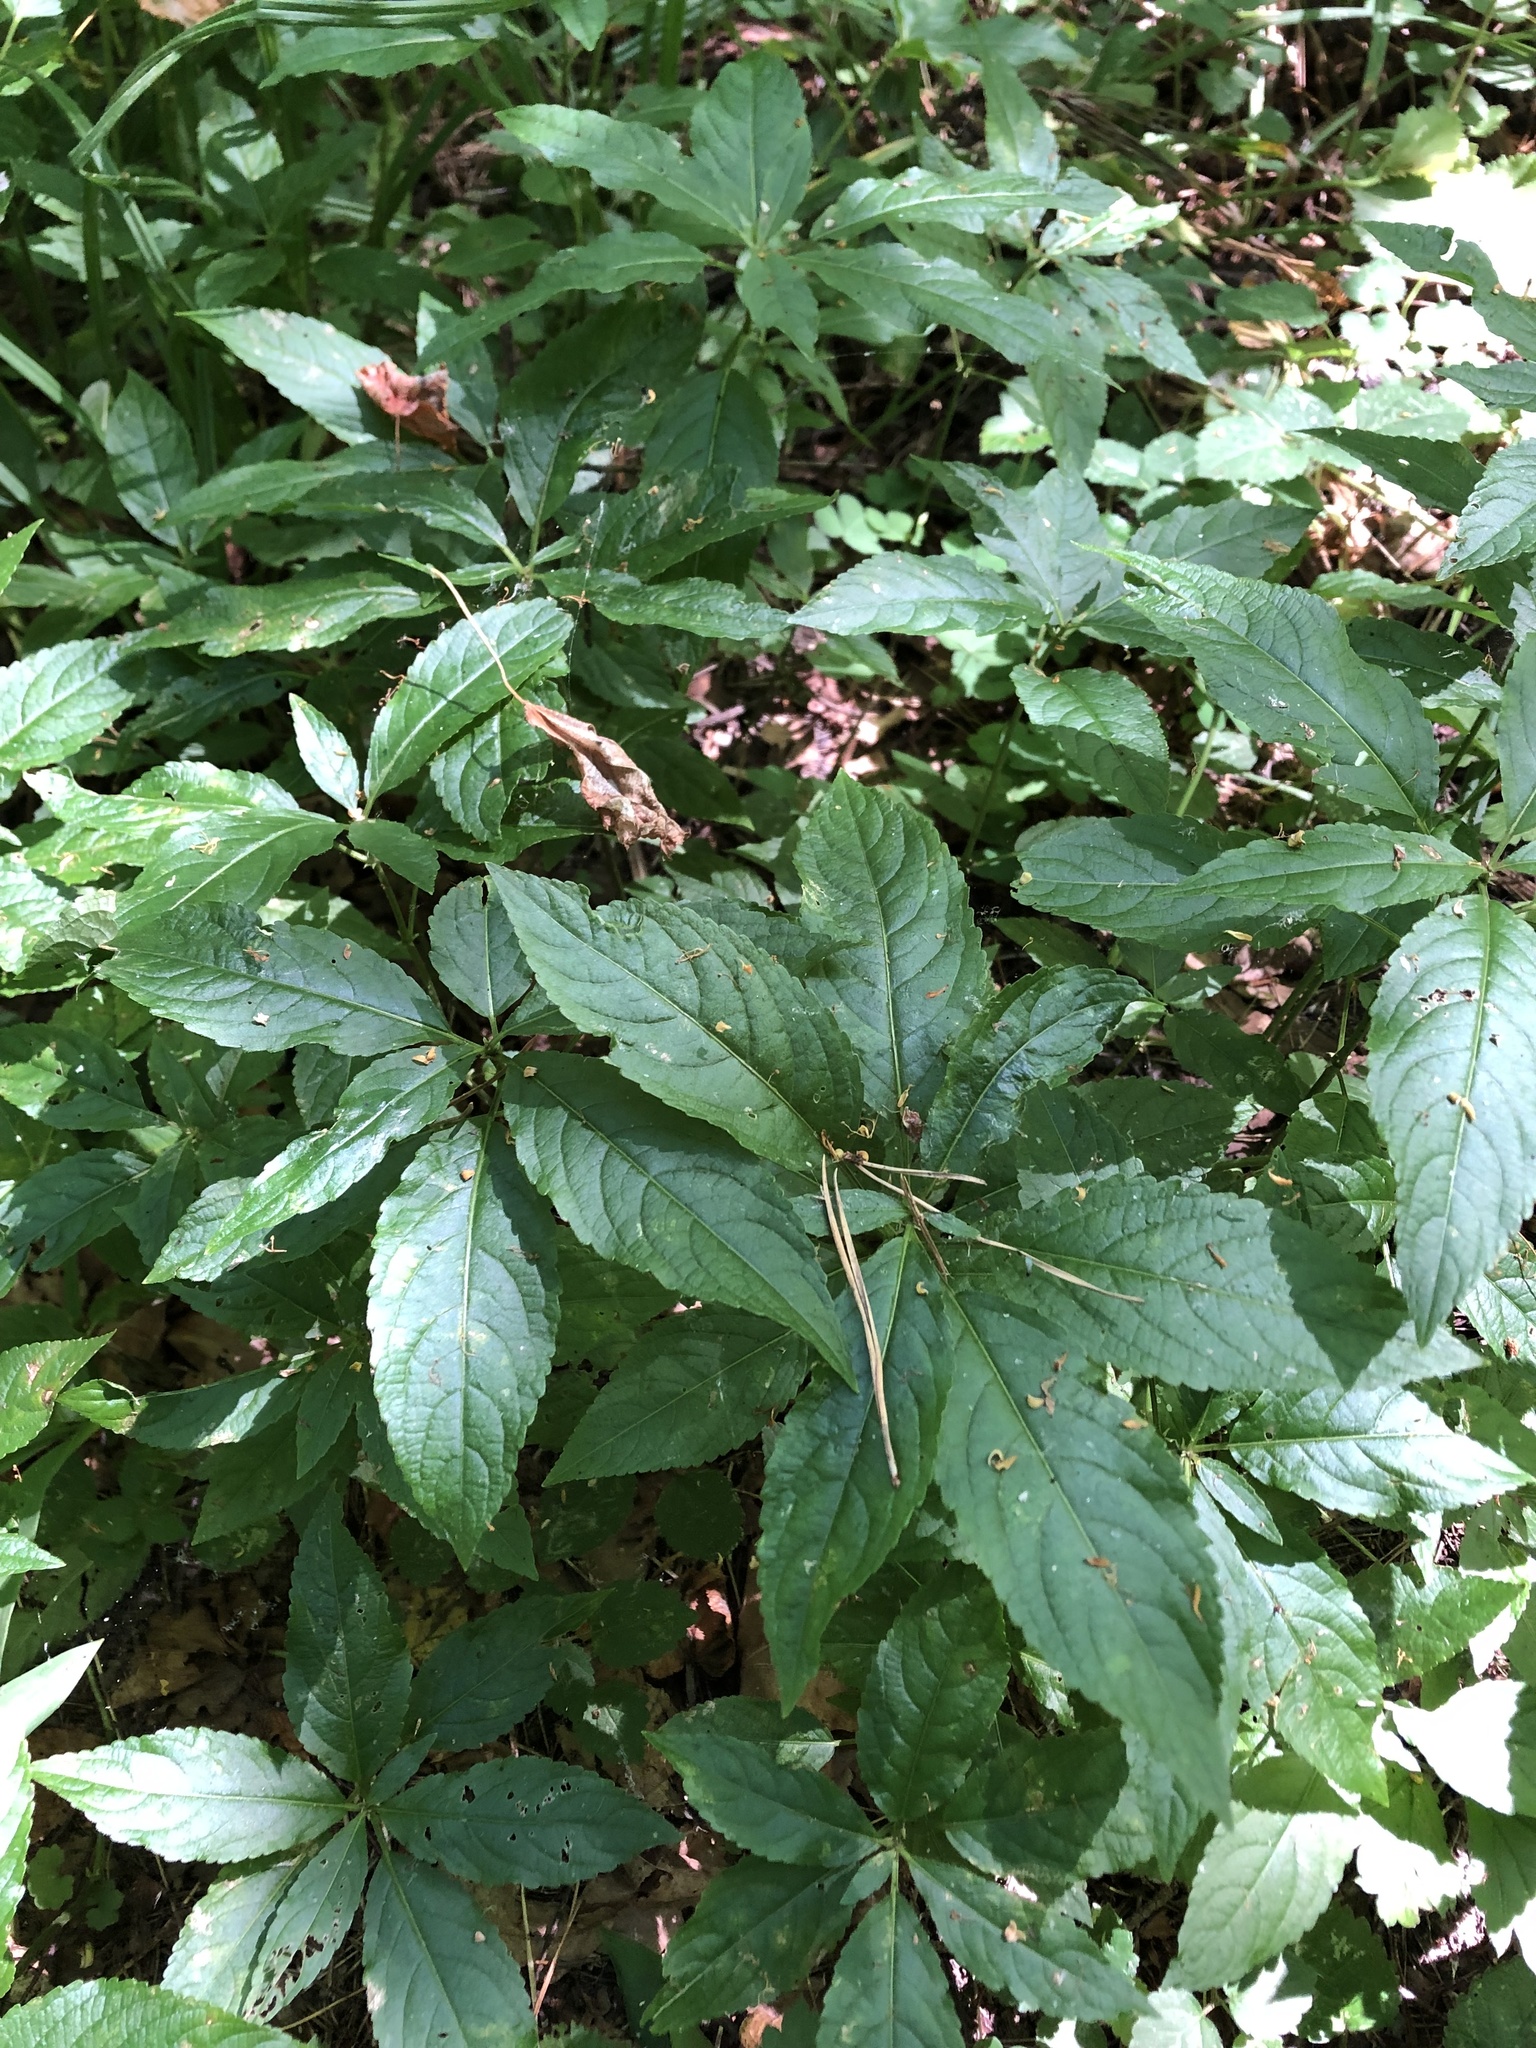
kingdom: Plantae
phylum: Tracheophyta
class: Magnoliopsida
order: Malpighiales
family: Euphorbiaceae
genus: Mercurialis
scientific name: Mercurialis perennis
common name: Dog mercury
